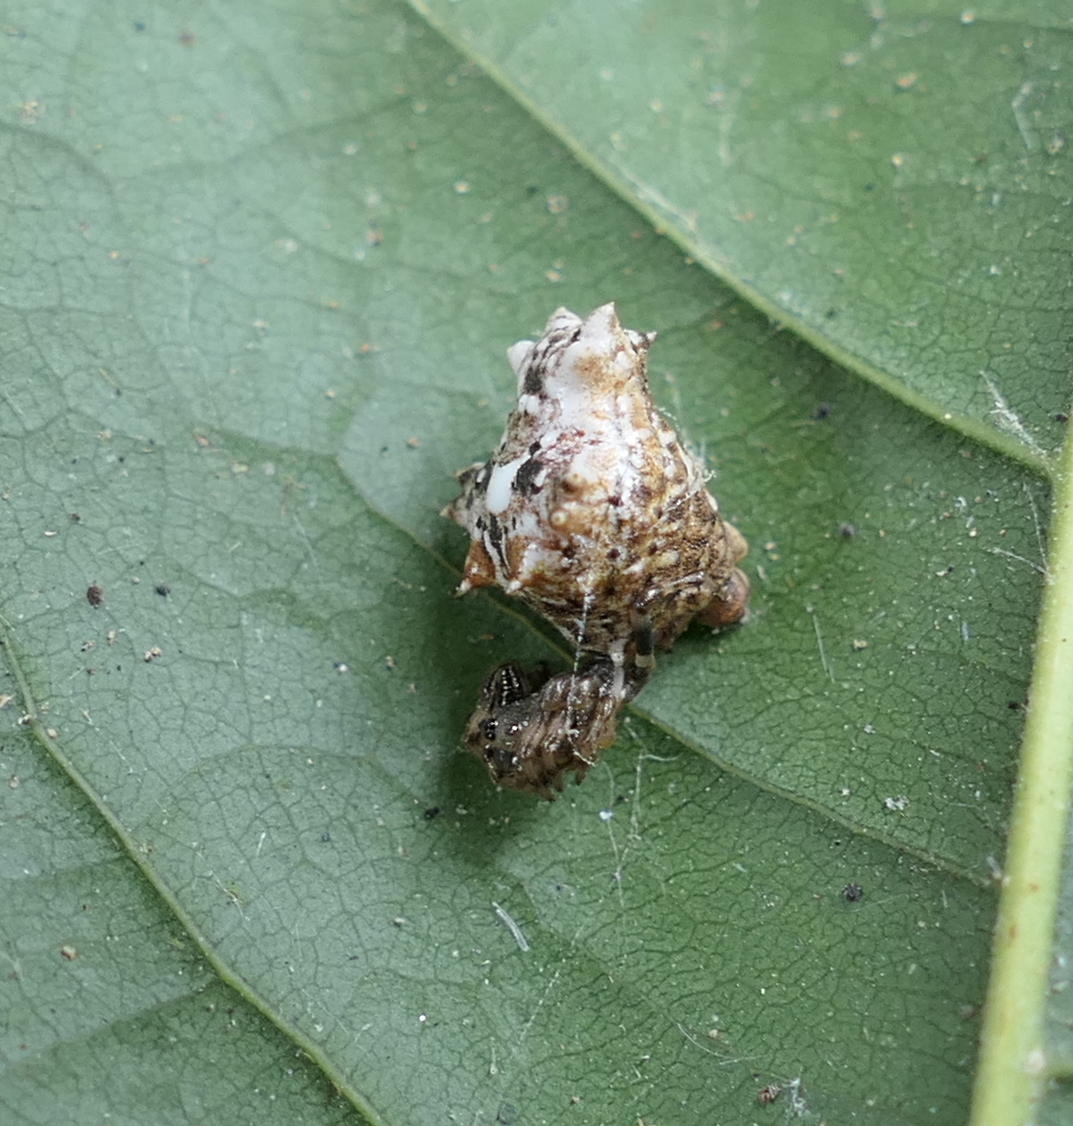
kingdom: Animalia
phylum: Arthropoda
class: Arachnida
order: Araneae
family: Araneidae
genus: Micrathena
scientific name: Micrathena horrida
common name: Orb weavers
